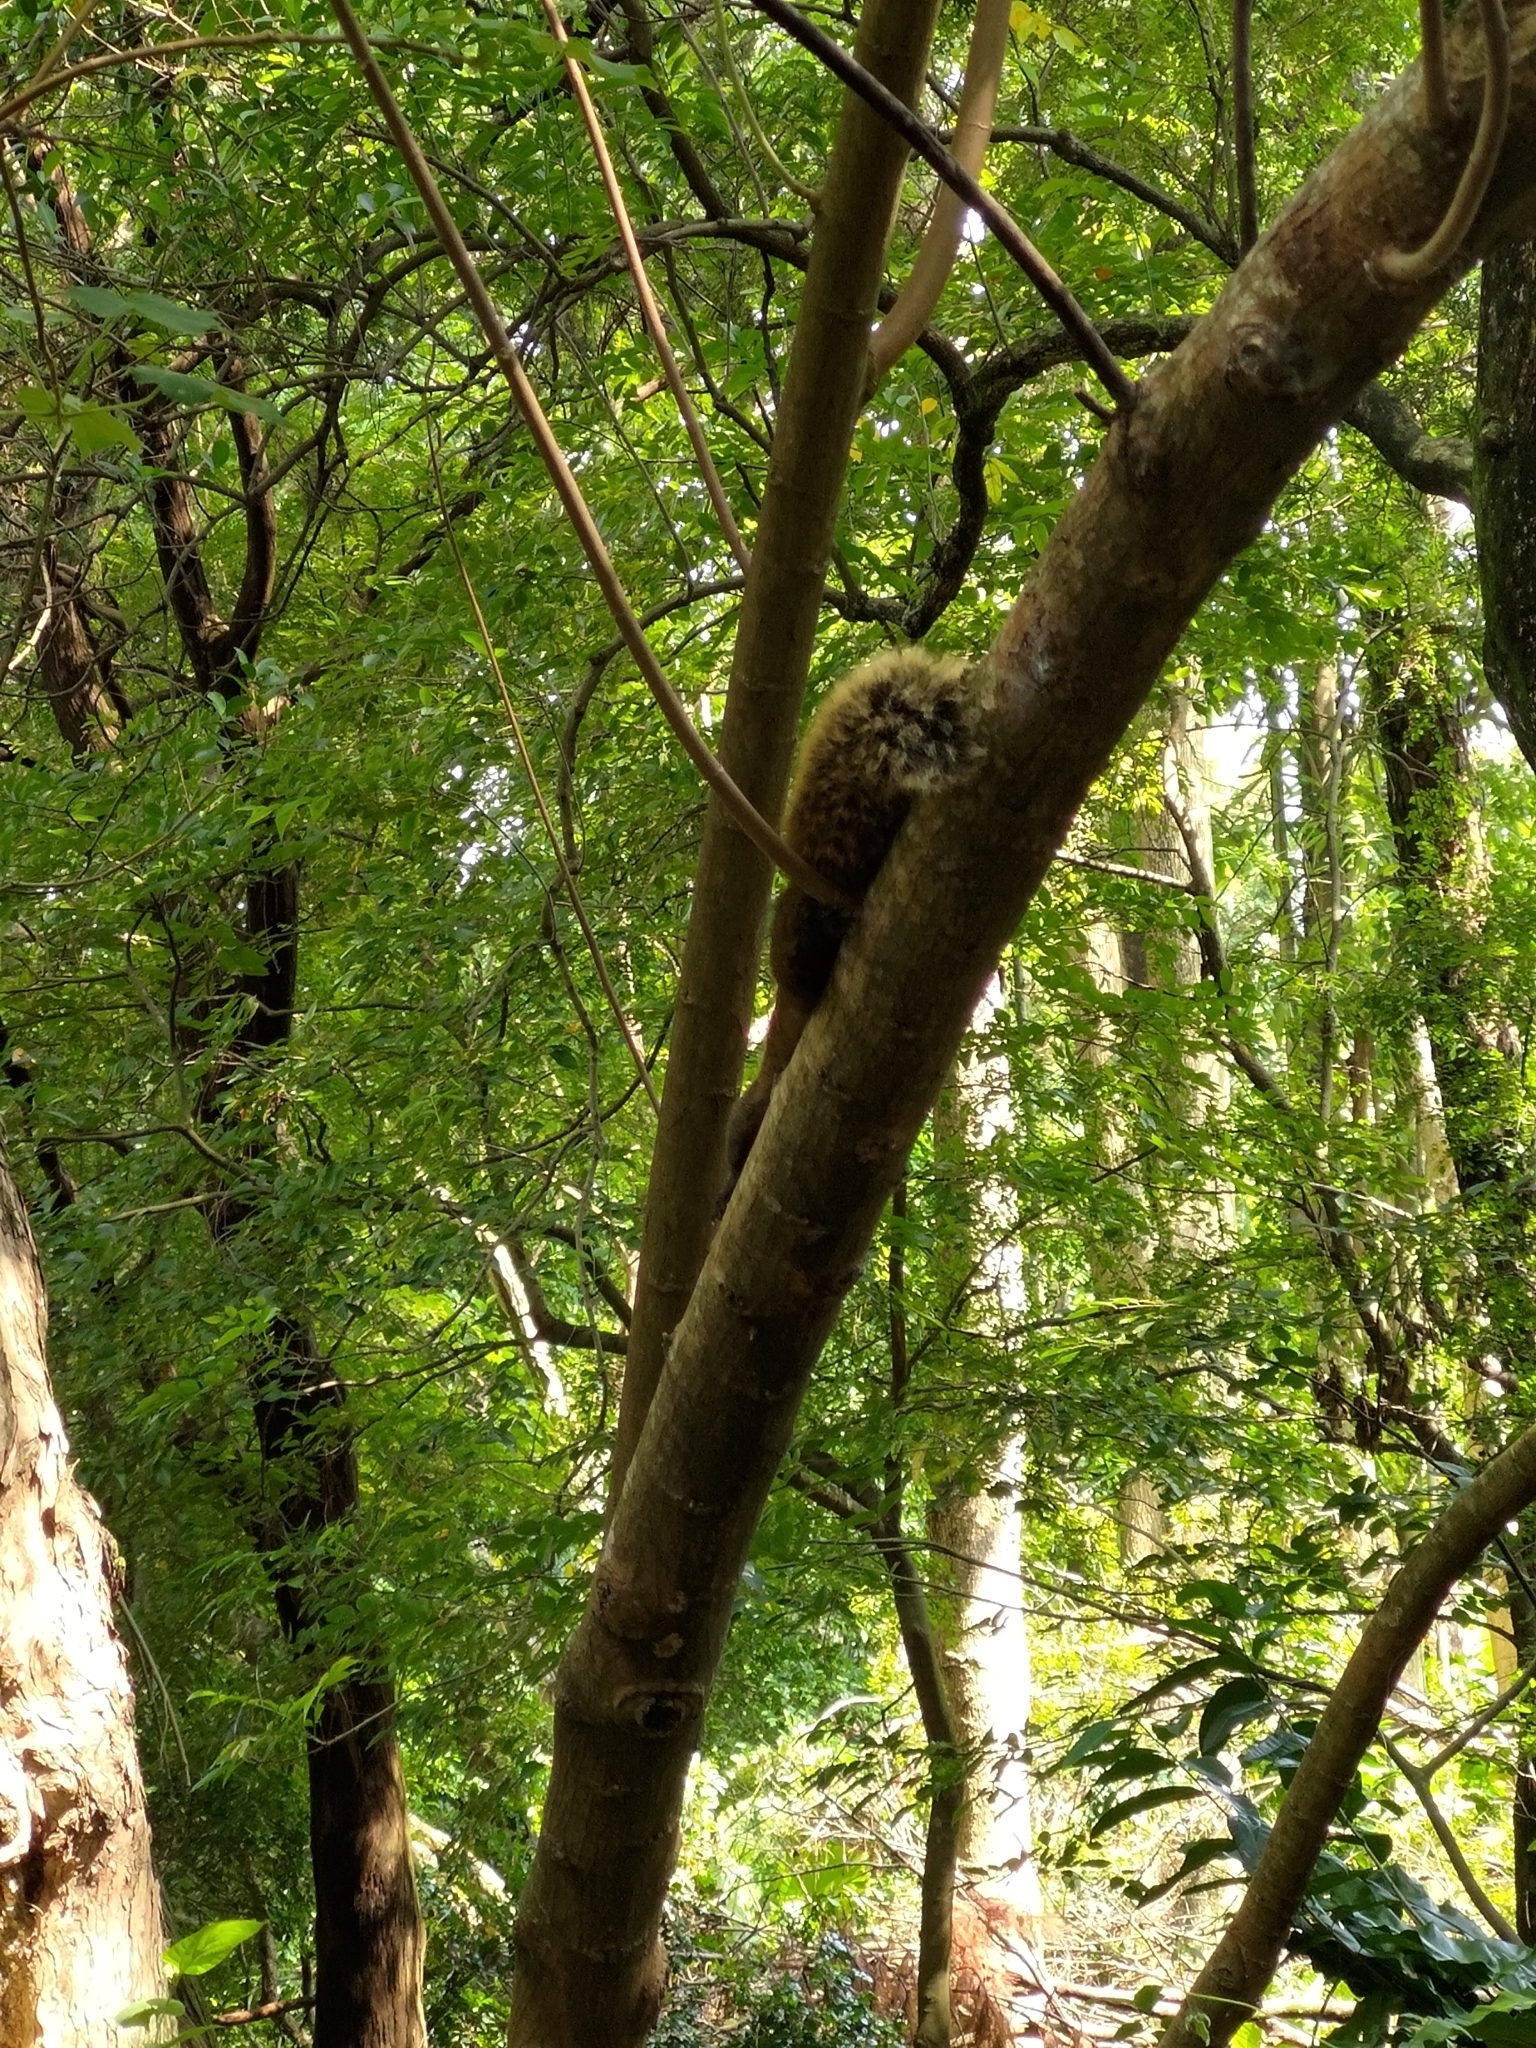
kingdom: Animalia
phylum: Chordata
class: Mammalia
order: Rodentia
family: Sciuridae
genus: Callosciurus
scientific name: Callosciurus erythraeus
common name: Pallas's squirrel
